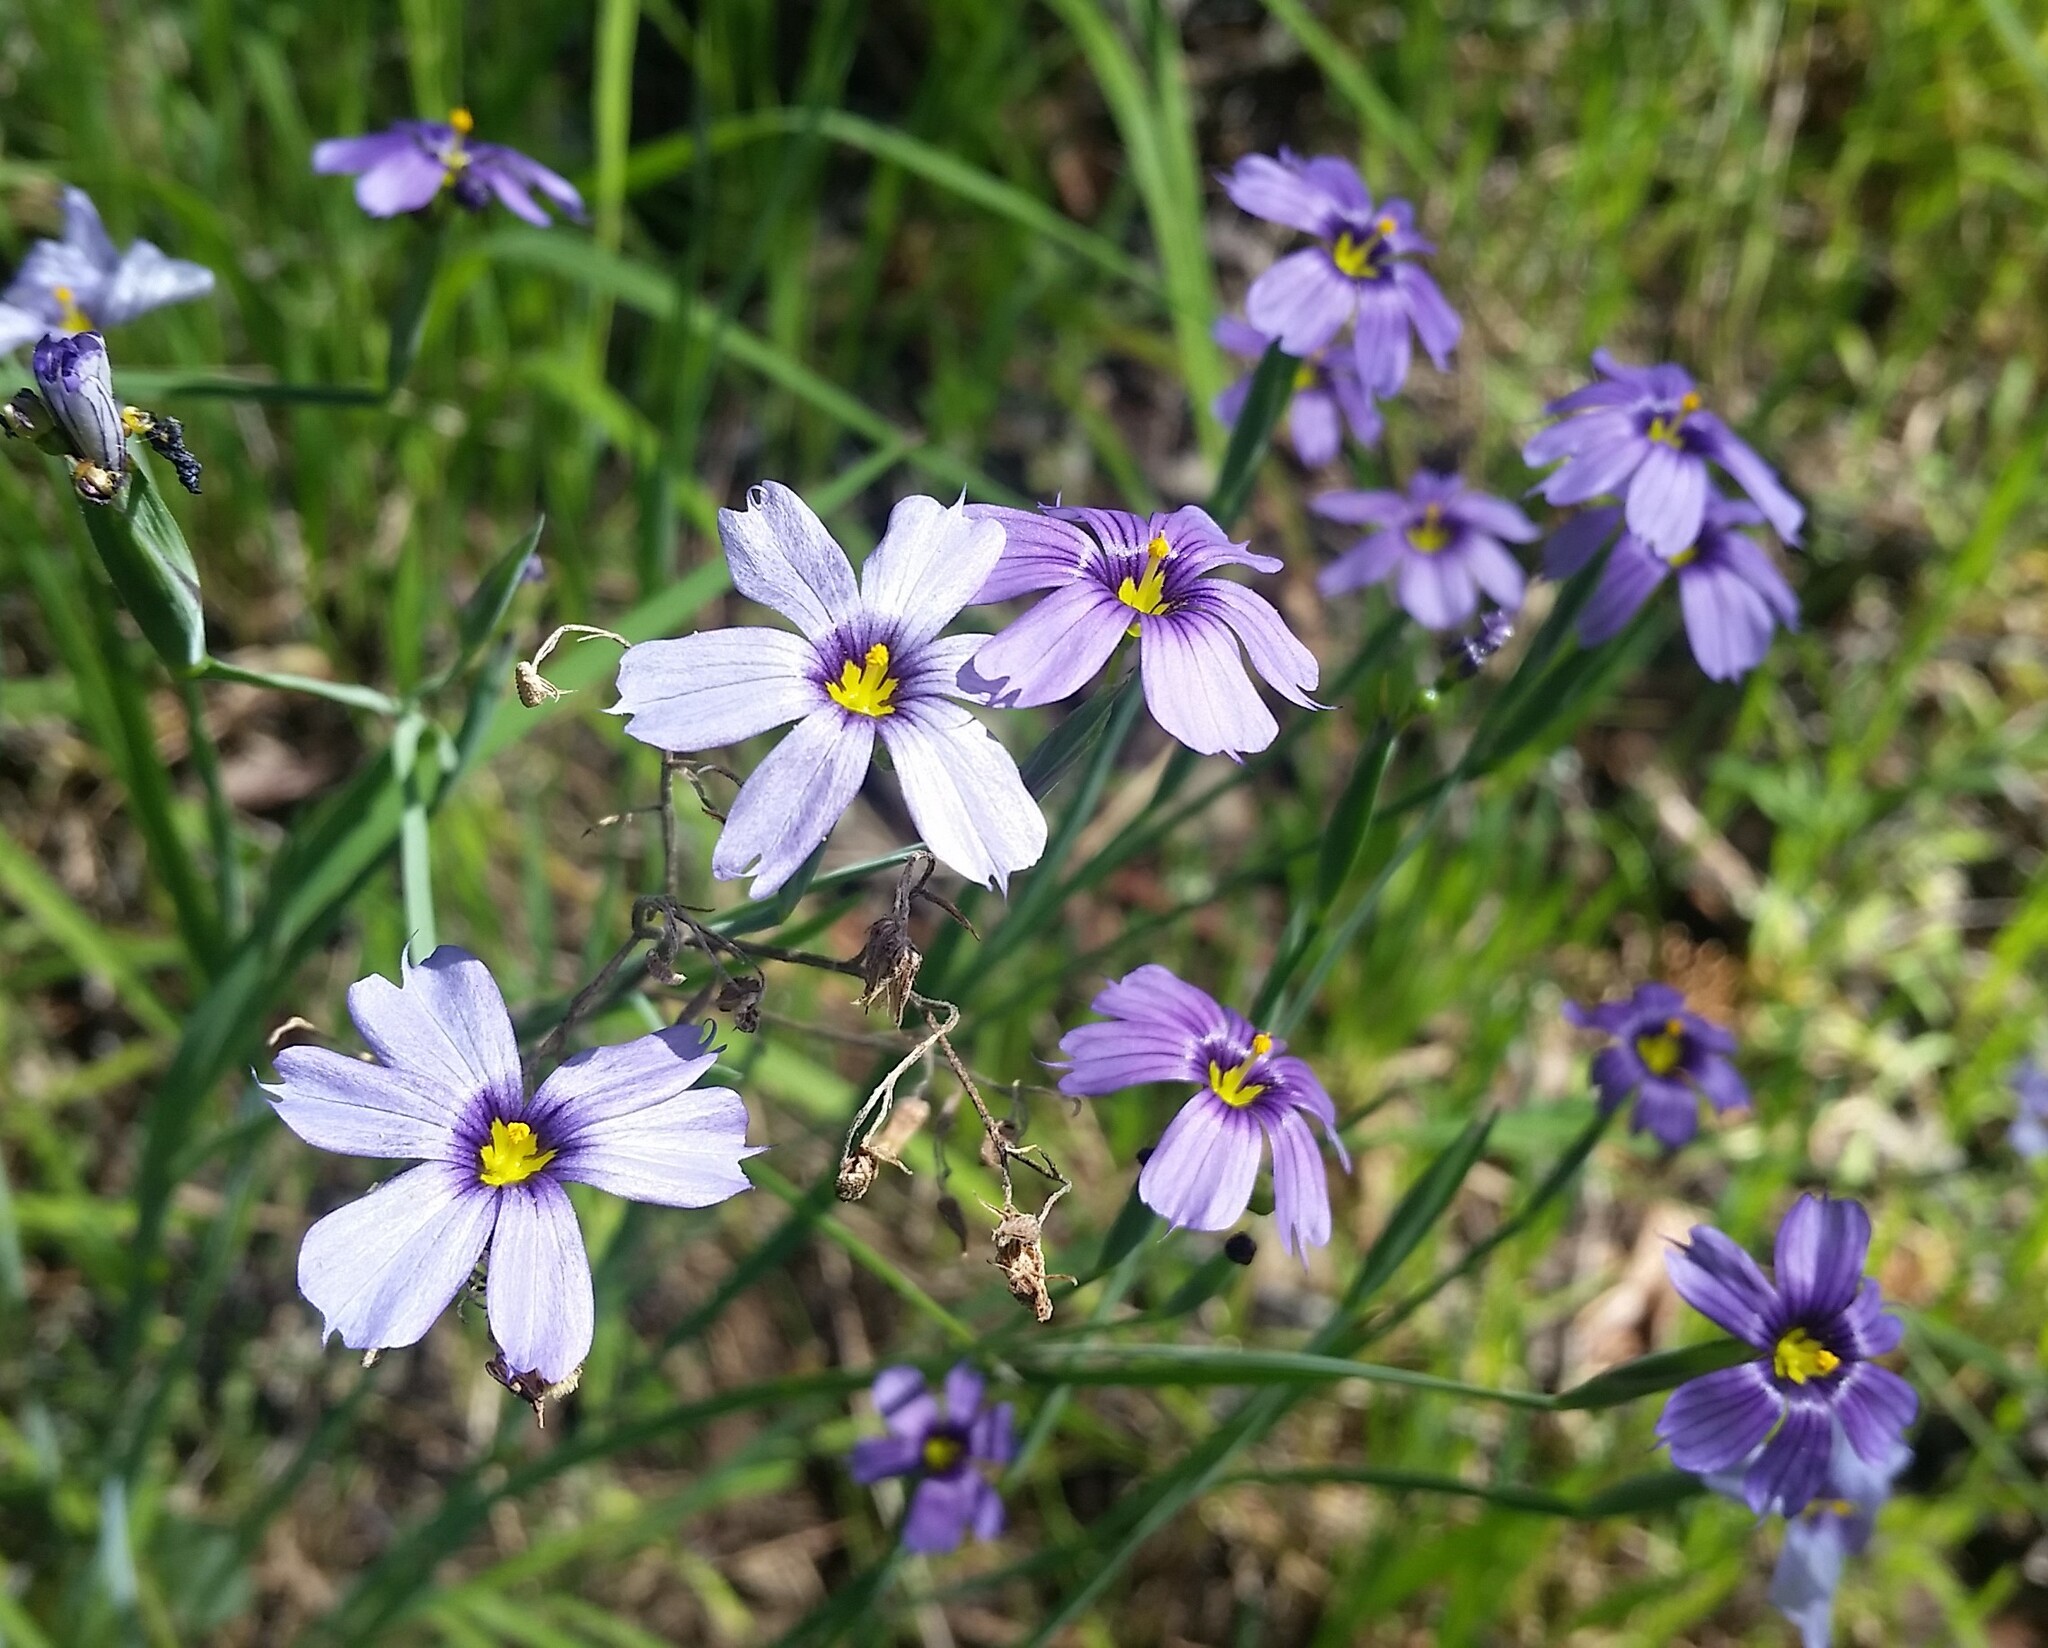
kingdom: Plantae
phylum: Tracheophyta
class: Liliopsida
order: Asparagales
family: Iridaceae
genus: Sisyrinchium
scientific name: Sisyrinchium bellum
